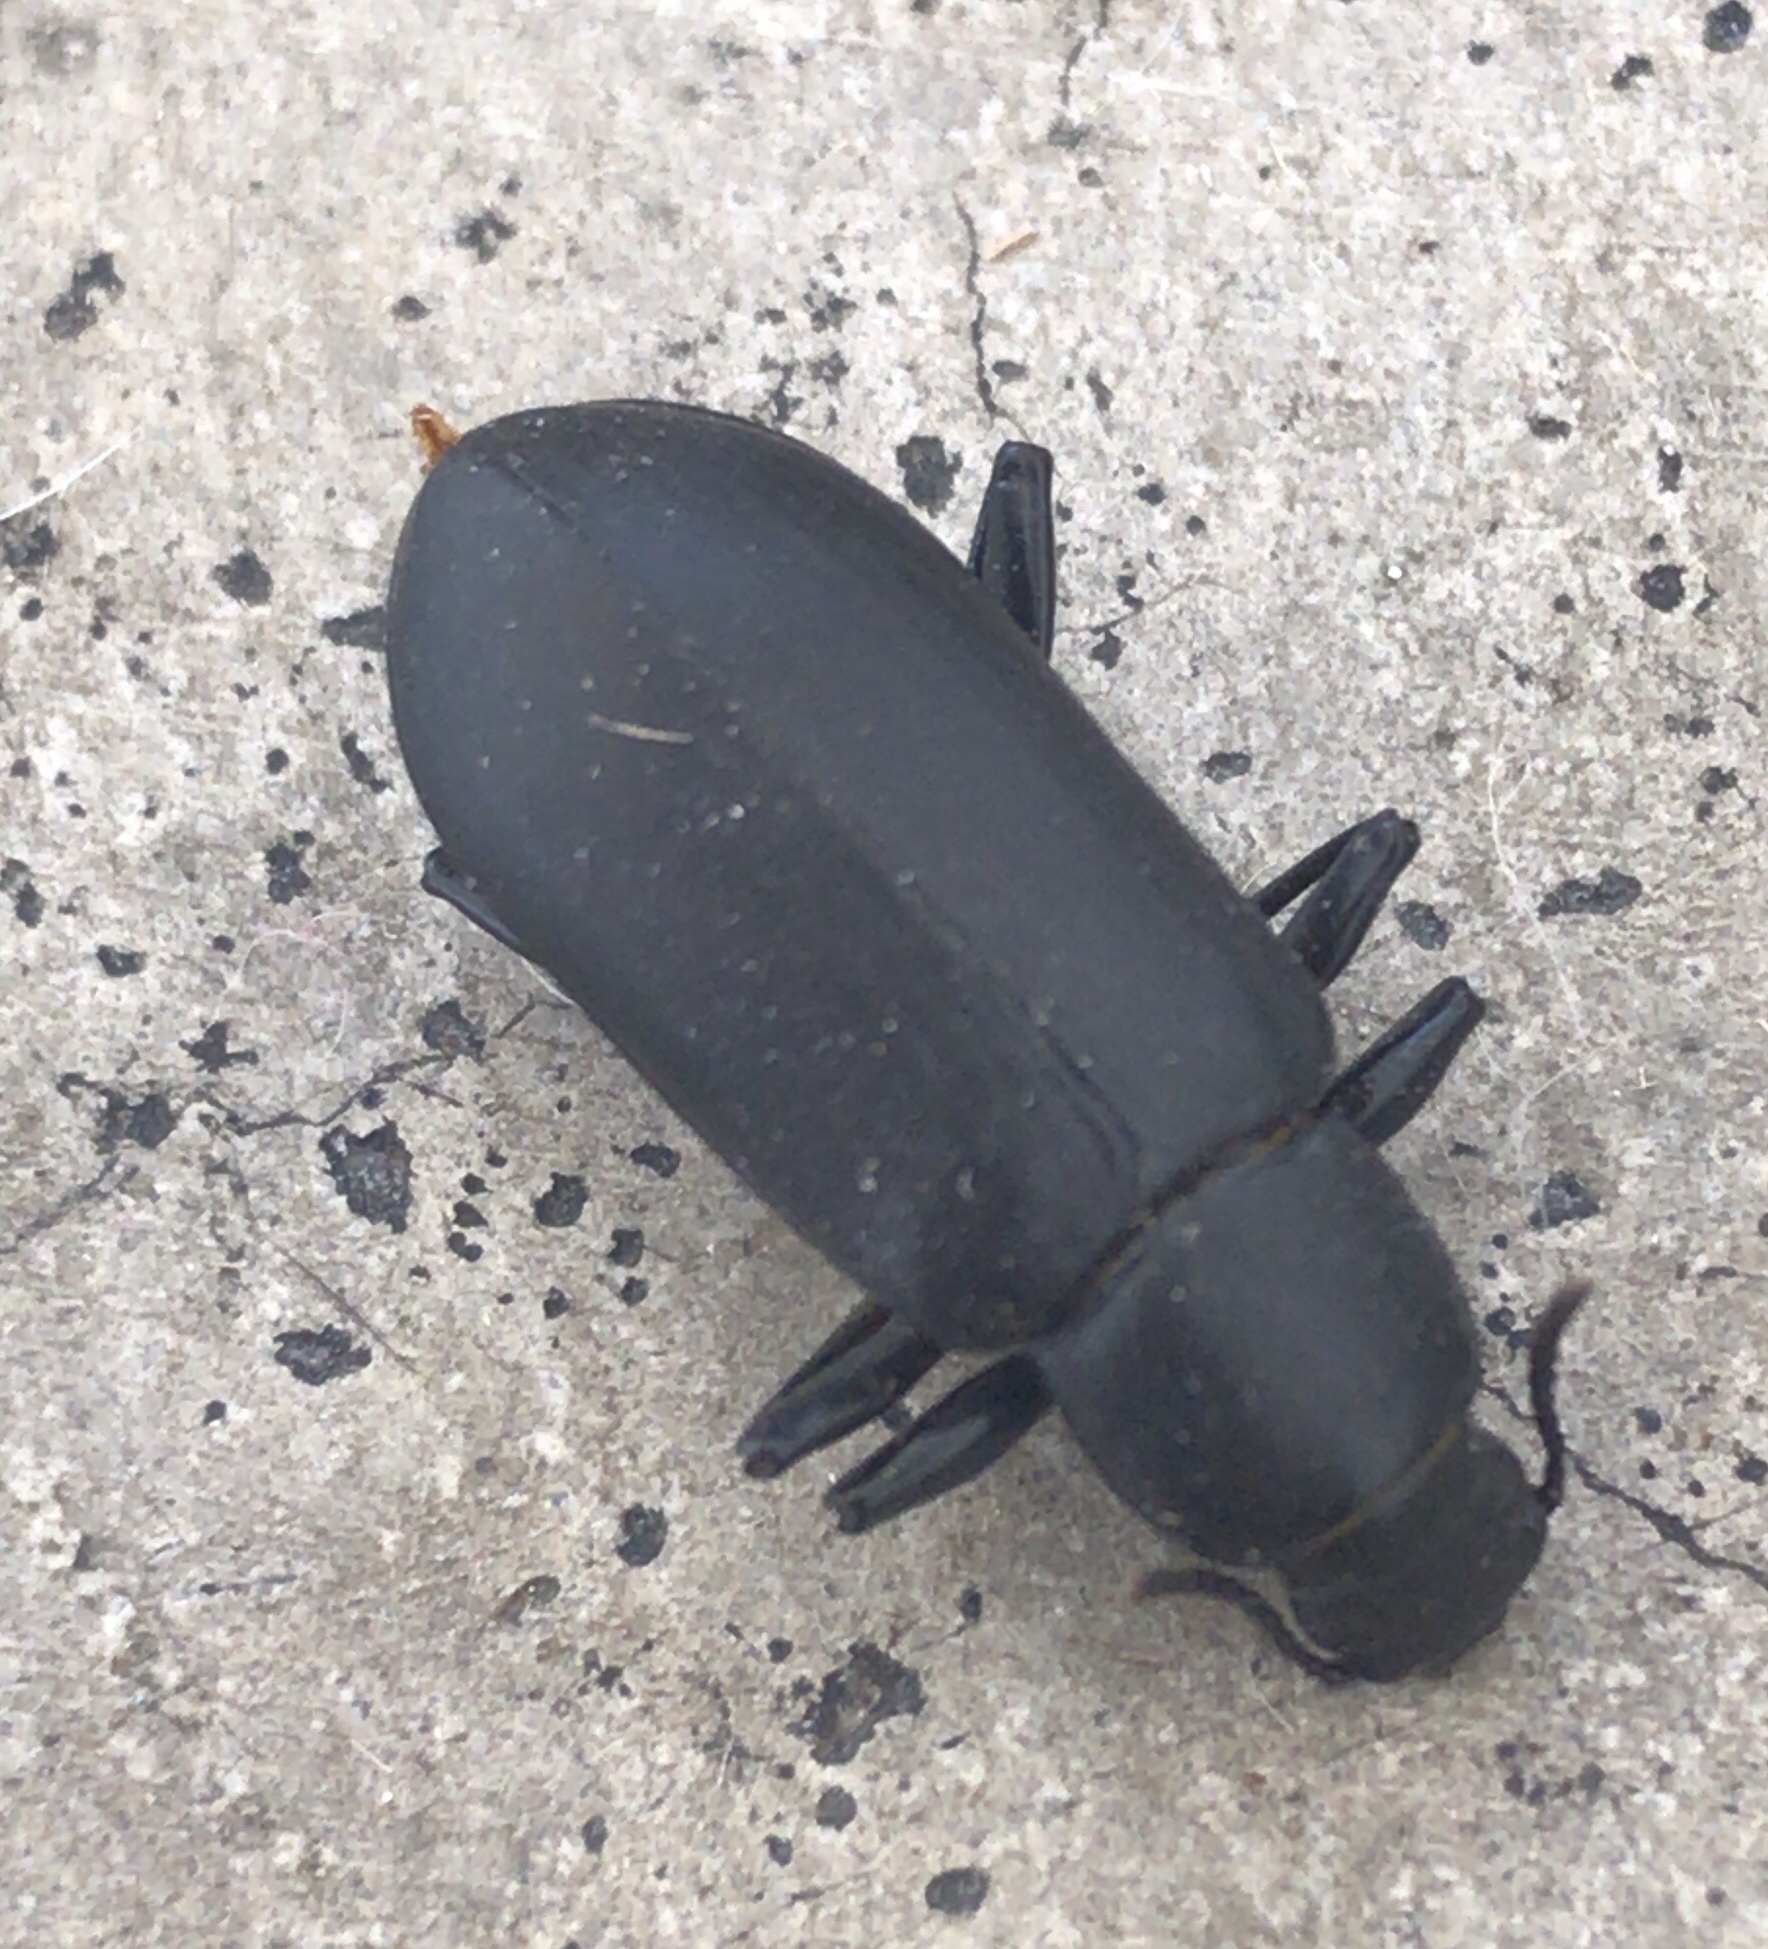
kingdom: Animalia
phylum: Arthropoda
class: Insecta
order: Coleoptera
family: Tenebrionidae
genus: Alobates
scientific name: Alobates pensylvanicus
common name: False mealworm beetle
